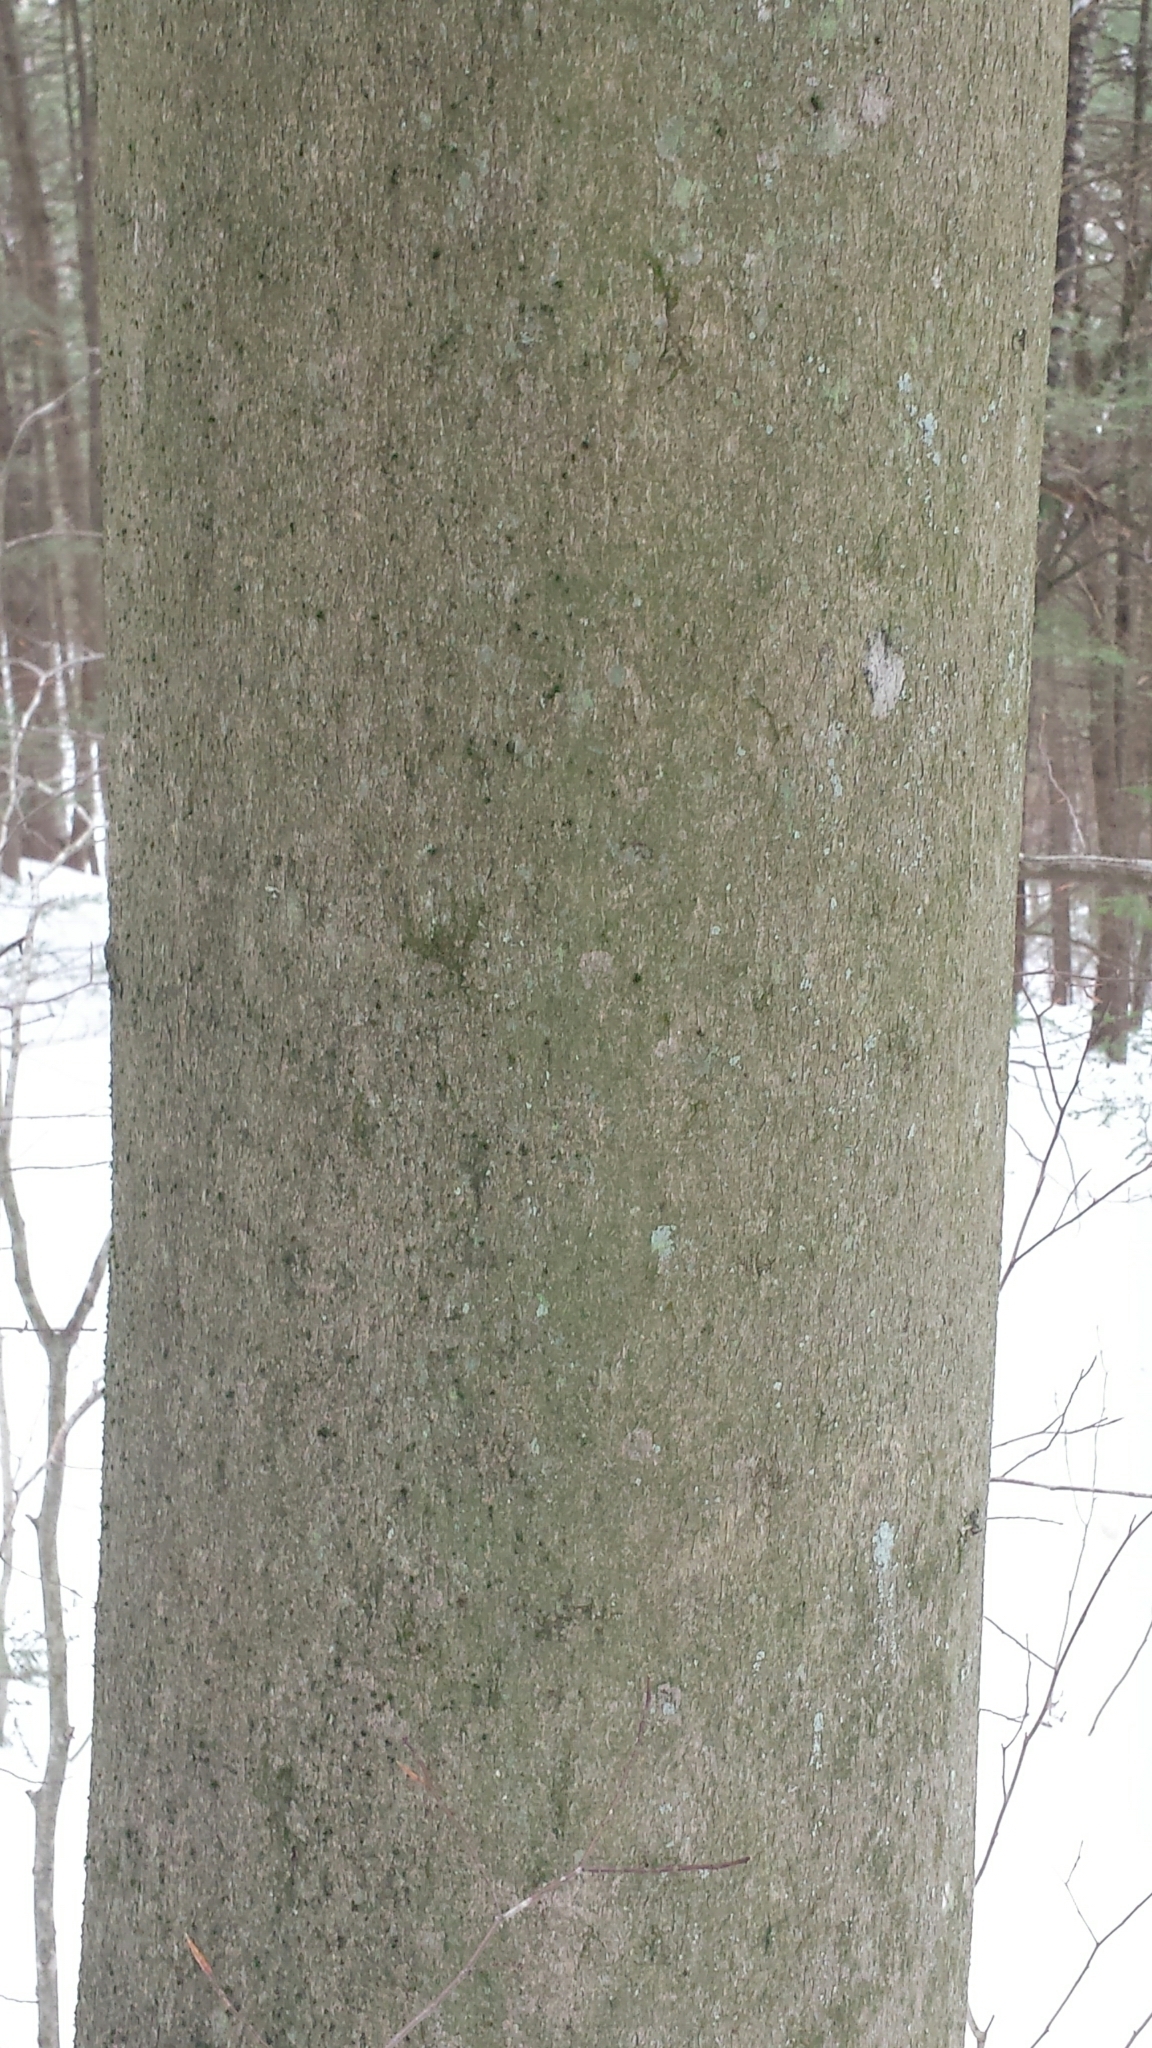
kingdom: Plantae
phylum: Tracheophyta
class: Magnoliopsida
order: Fagales
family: Fagaceae
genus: Fagus
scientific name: Fagus grandifolia
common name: American beech
